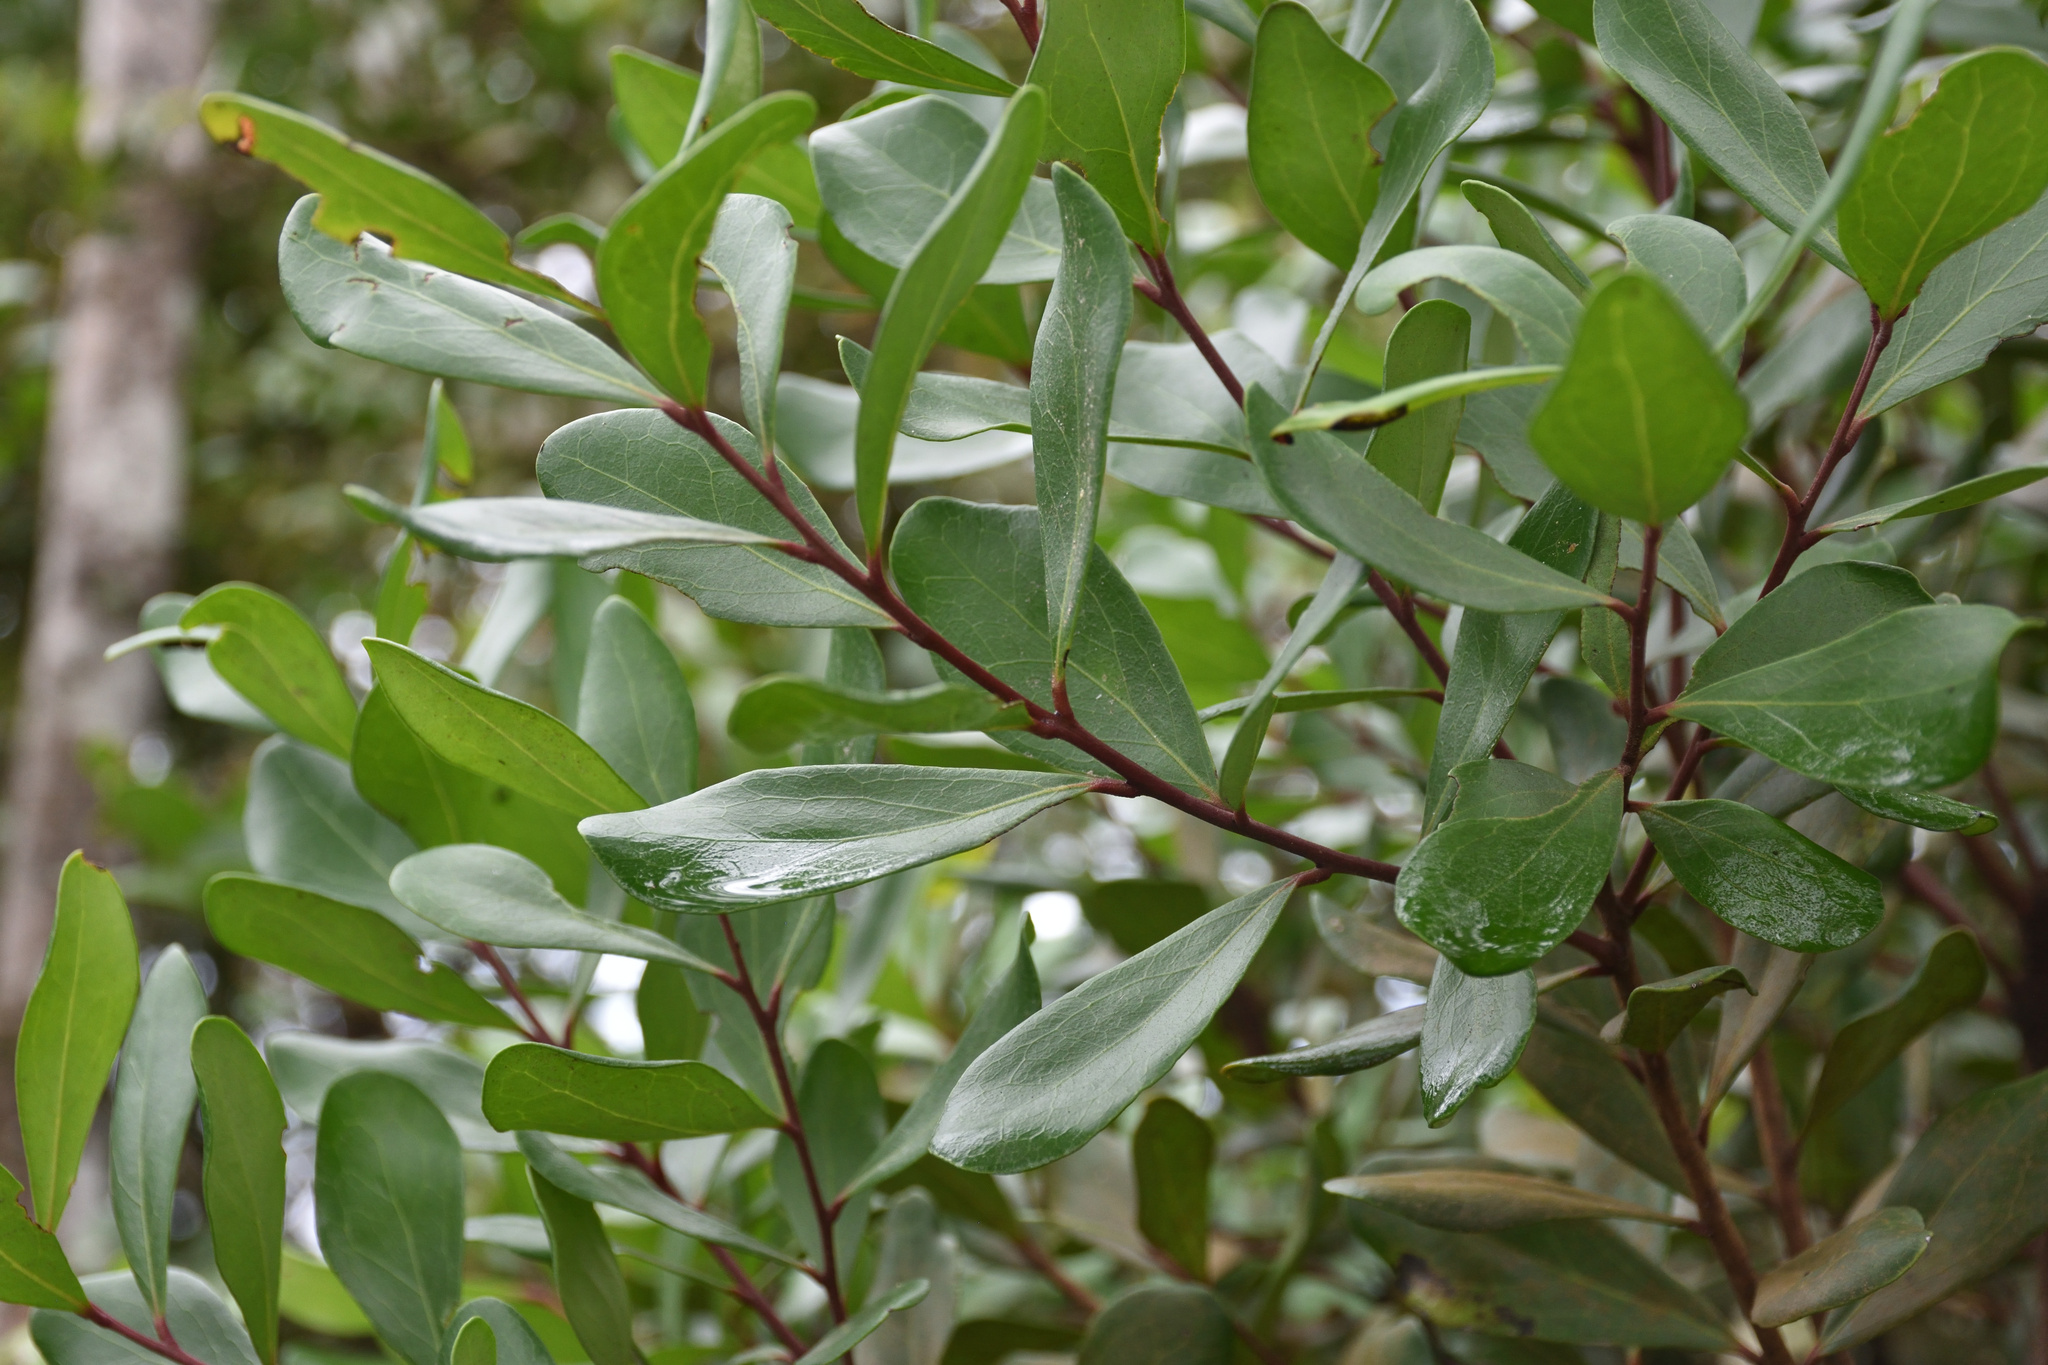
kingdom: Plantae
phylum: Tracheophyta
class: Magnoliopsida
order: Ericales
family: Ebenaceae
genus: Euclea
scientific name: Euclea racemosa
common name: Dune guarri
